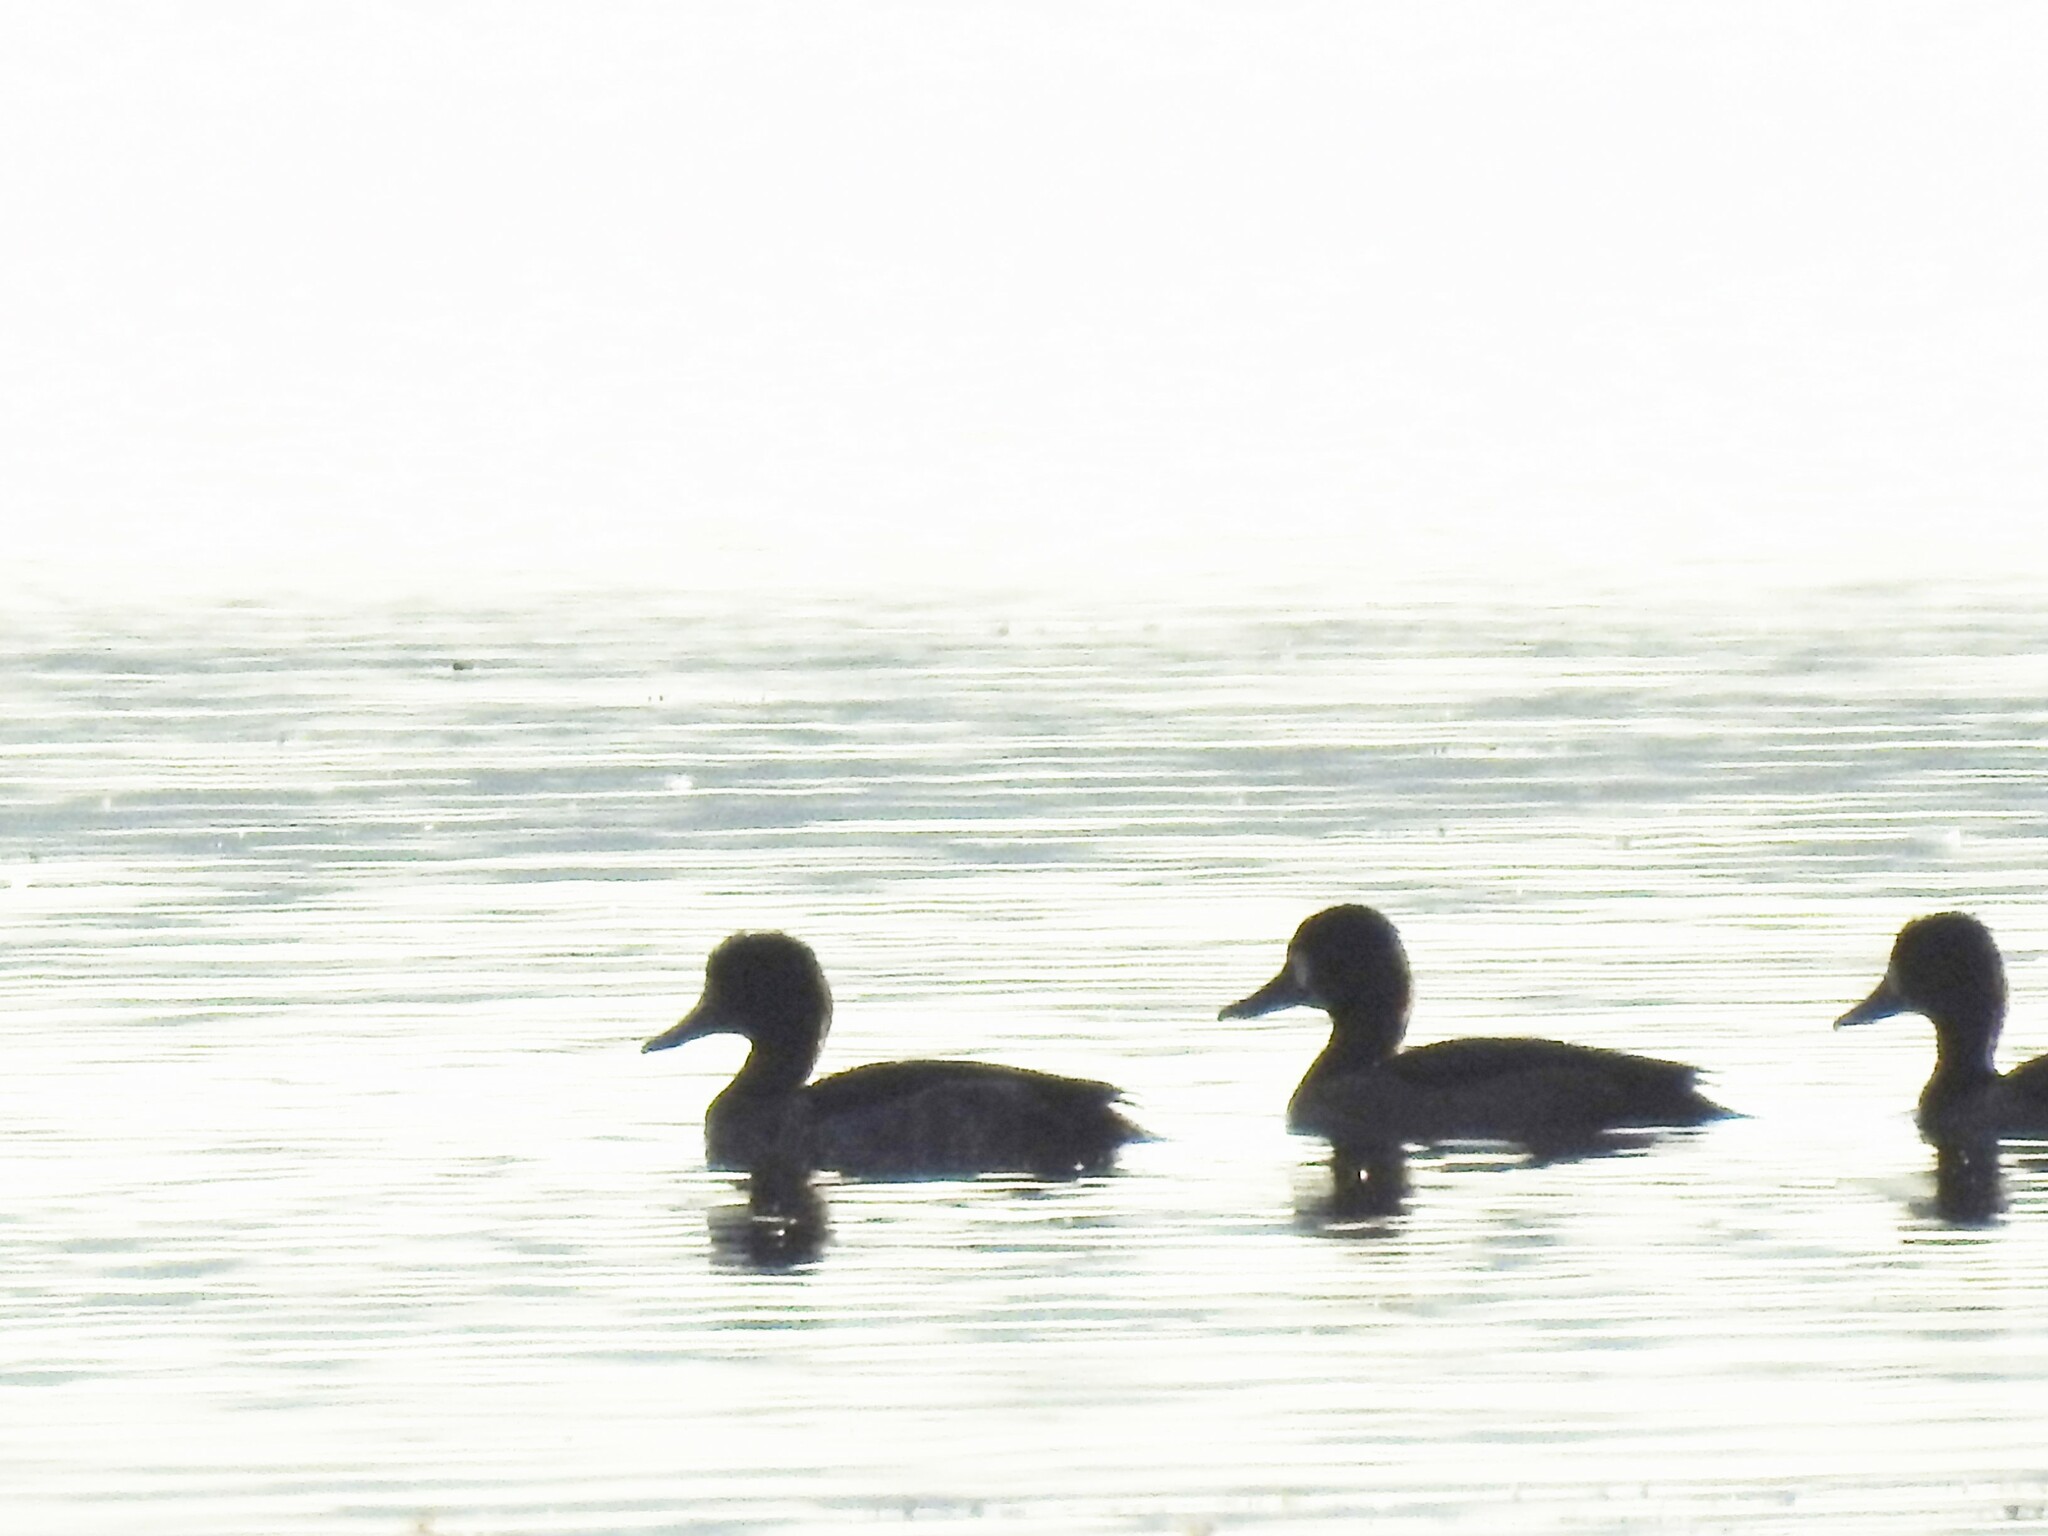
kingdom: Animalia
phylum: Chordata
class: Aves
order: Anseriformes
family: Anatidae
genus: Aythya
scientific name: Aythya fuligula
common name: Tufted duck
